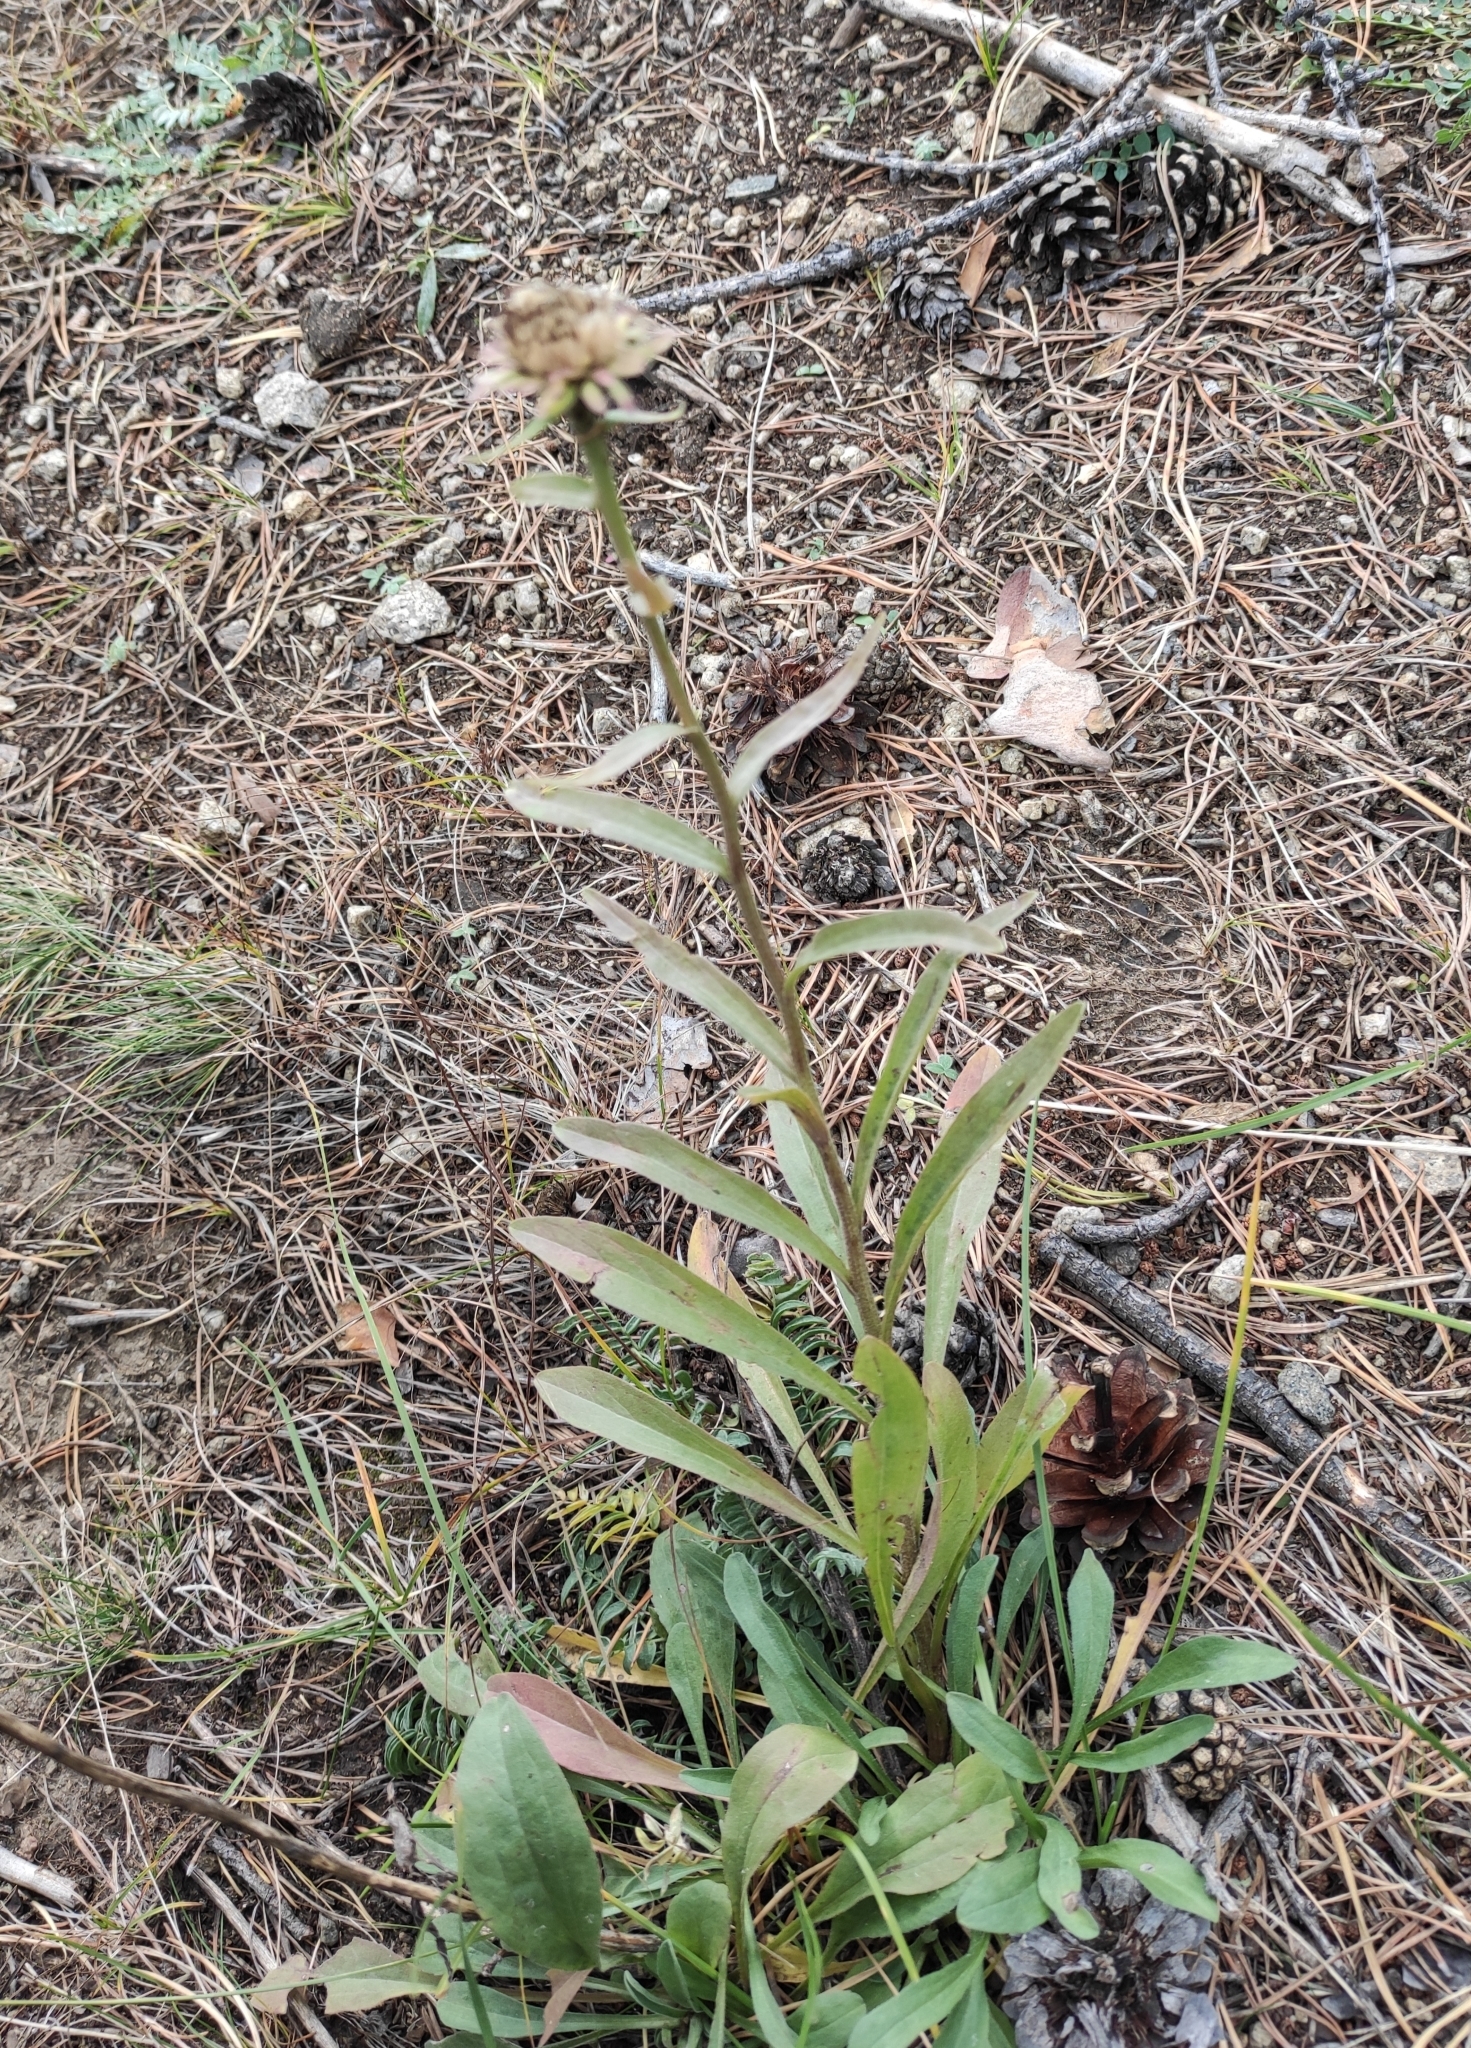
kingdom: Plantae
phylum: Tracheophyta
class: Magnoliopsida
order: Asterales
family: Asteraceae
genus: Aster
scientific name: Aster alpinus
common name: Alpine aster
